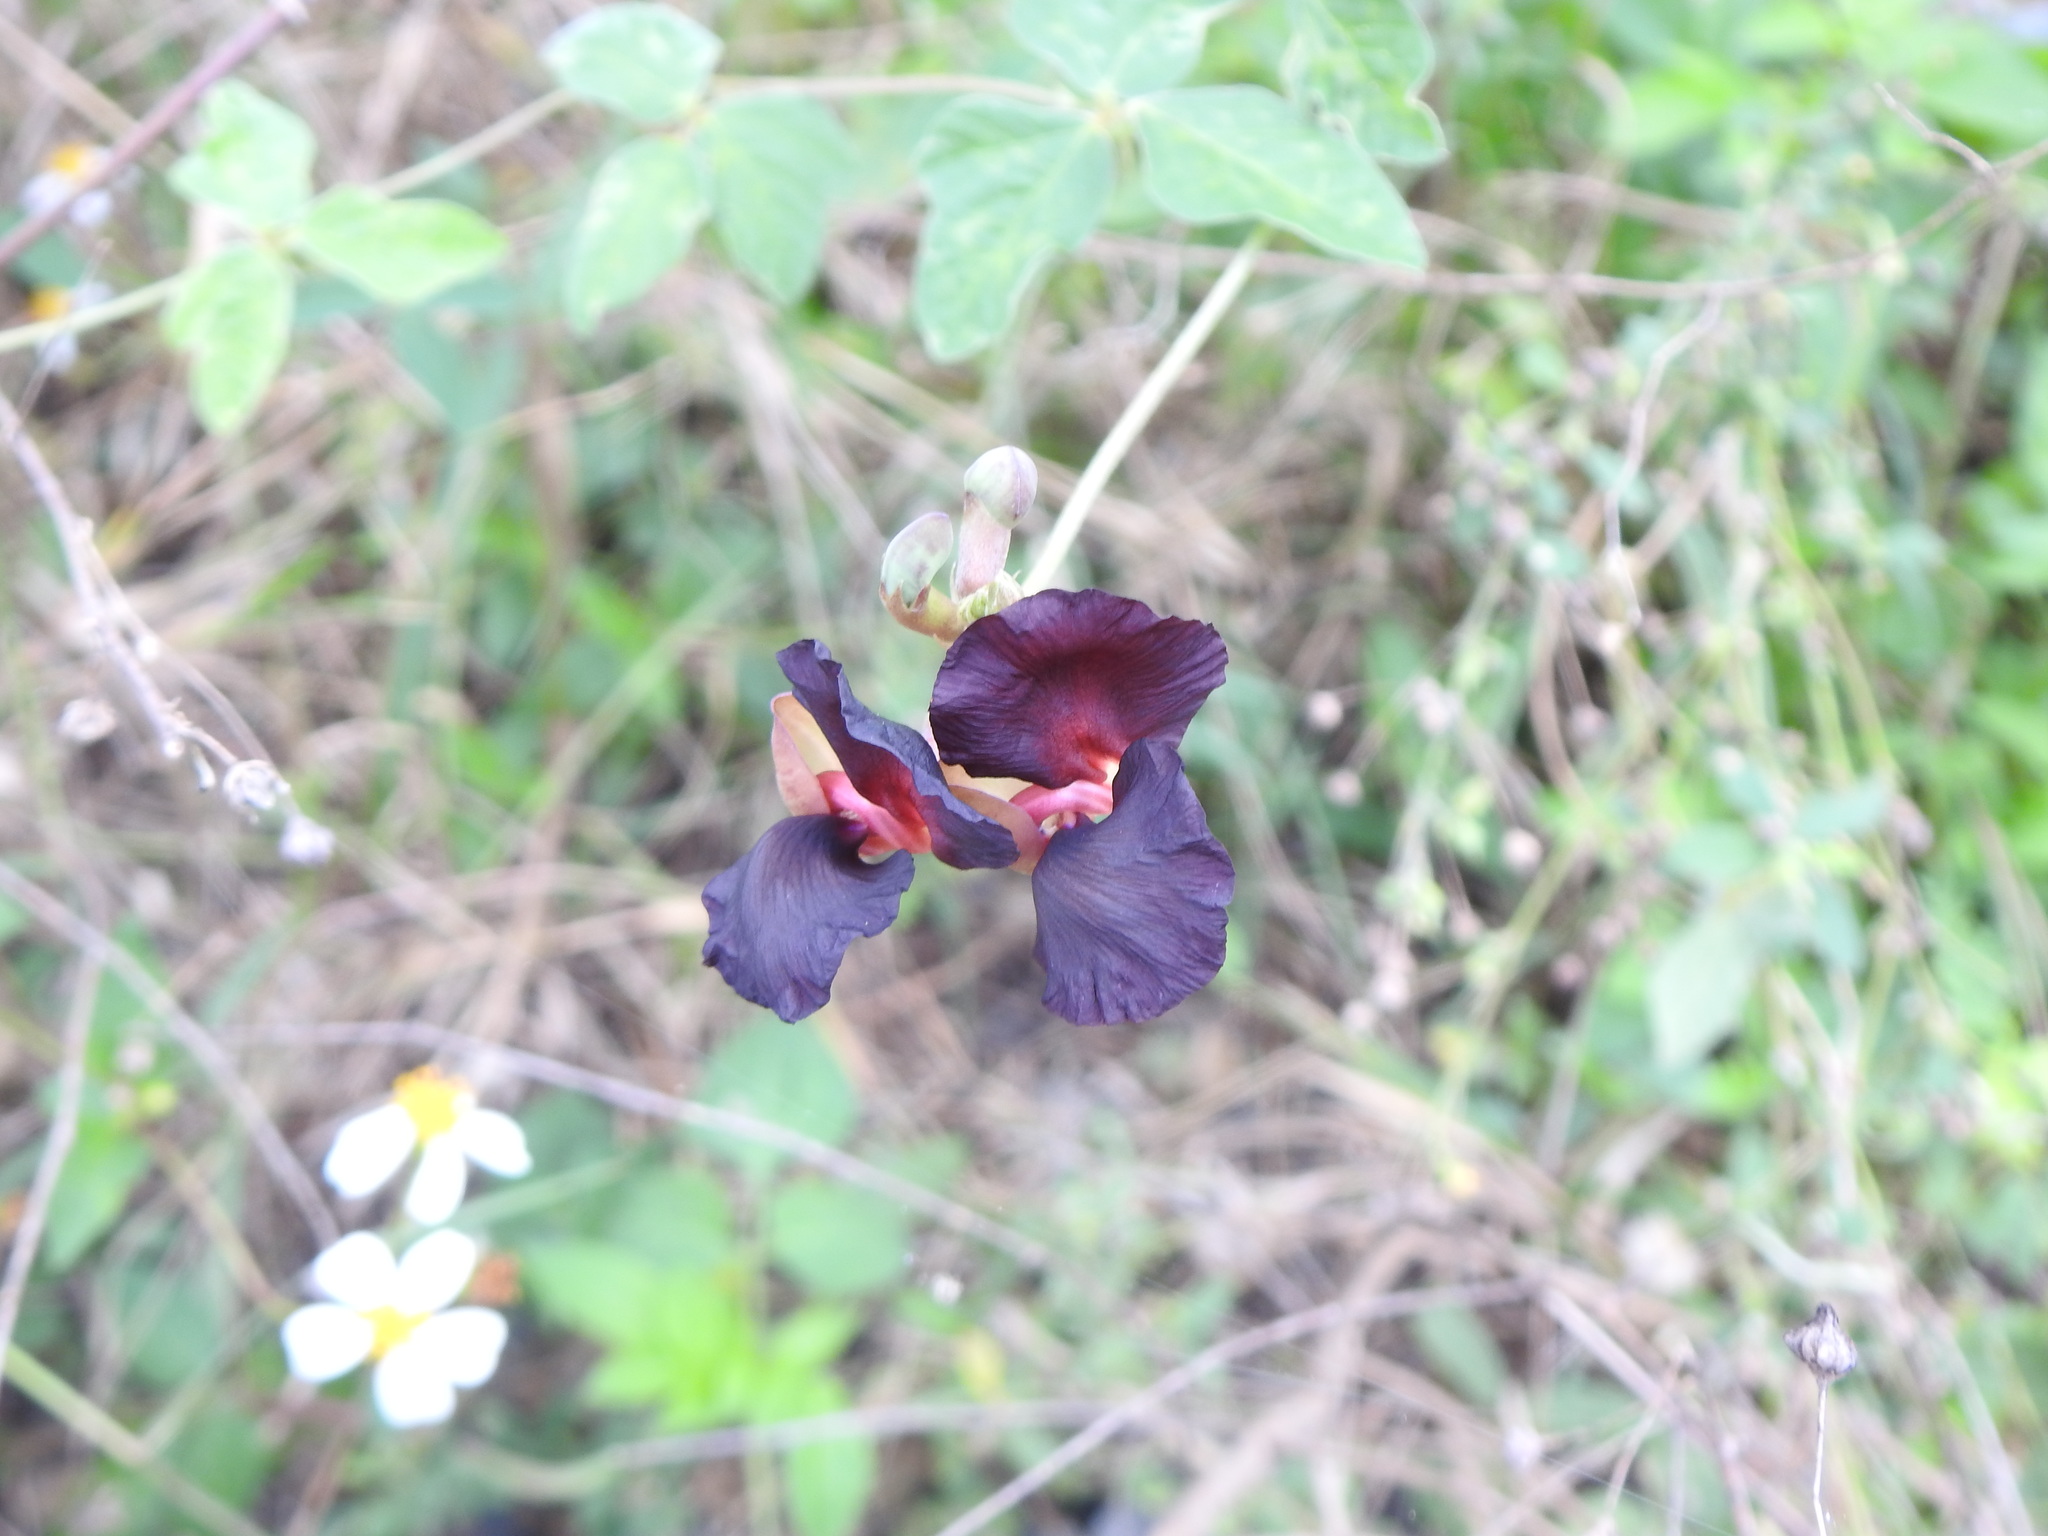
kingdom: Plantae
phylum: Tracheophyta
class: Magnoliopsida
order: Fabales
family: Fabaceae
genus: Macroptilium
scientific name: Macroptilium atropurpureum
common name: Purple bushbean
